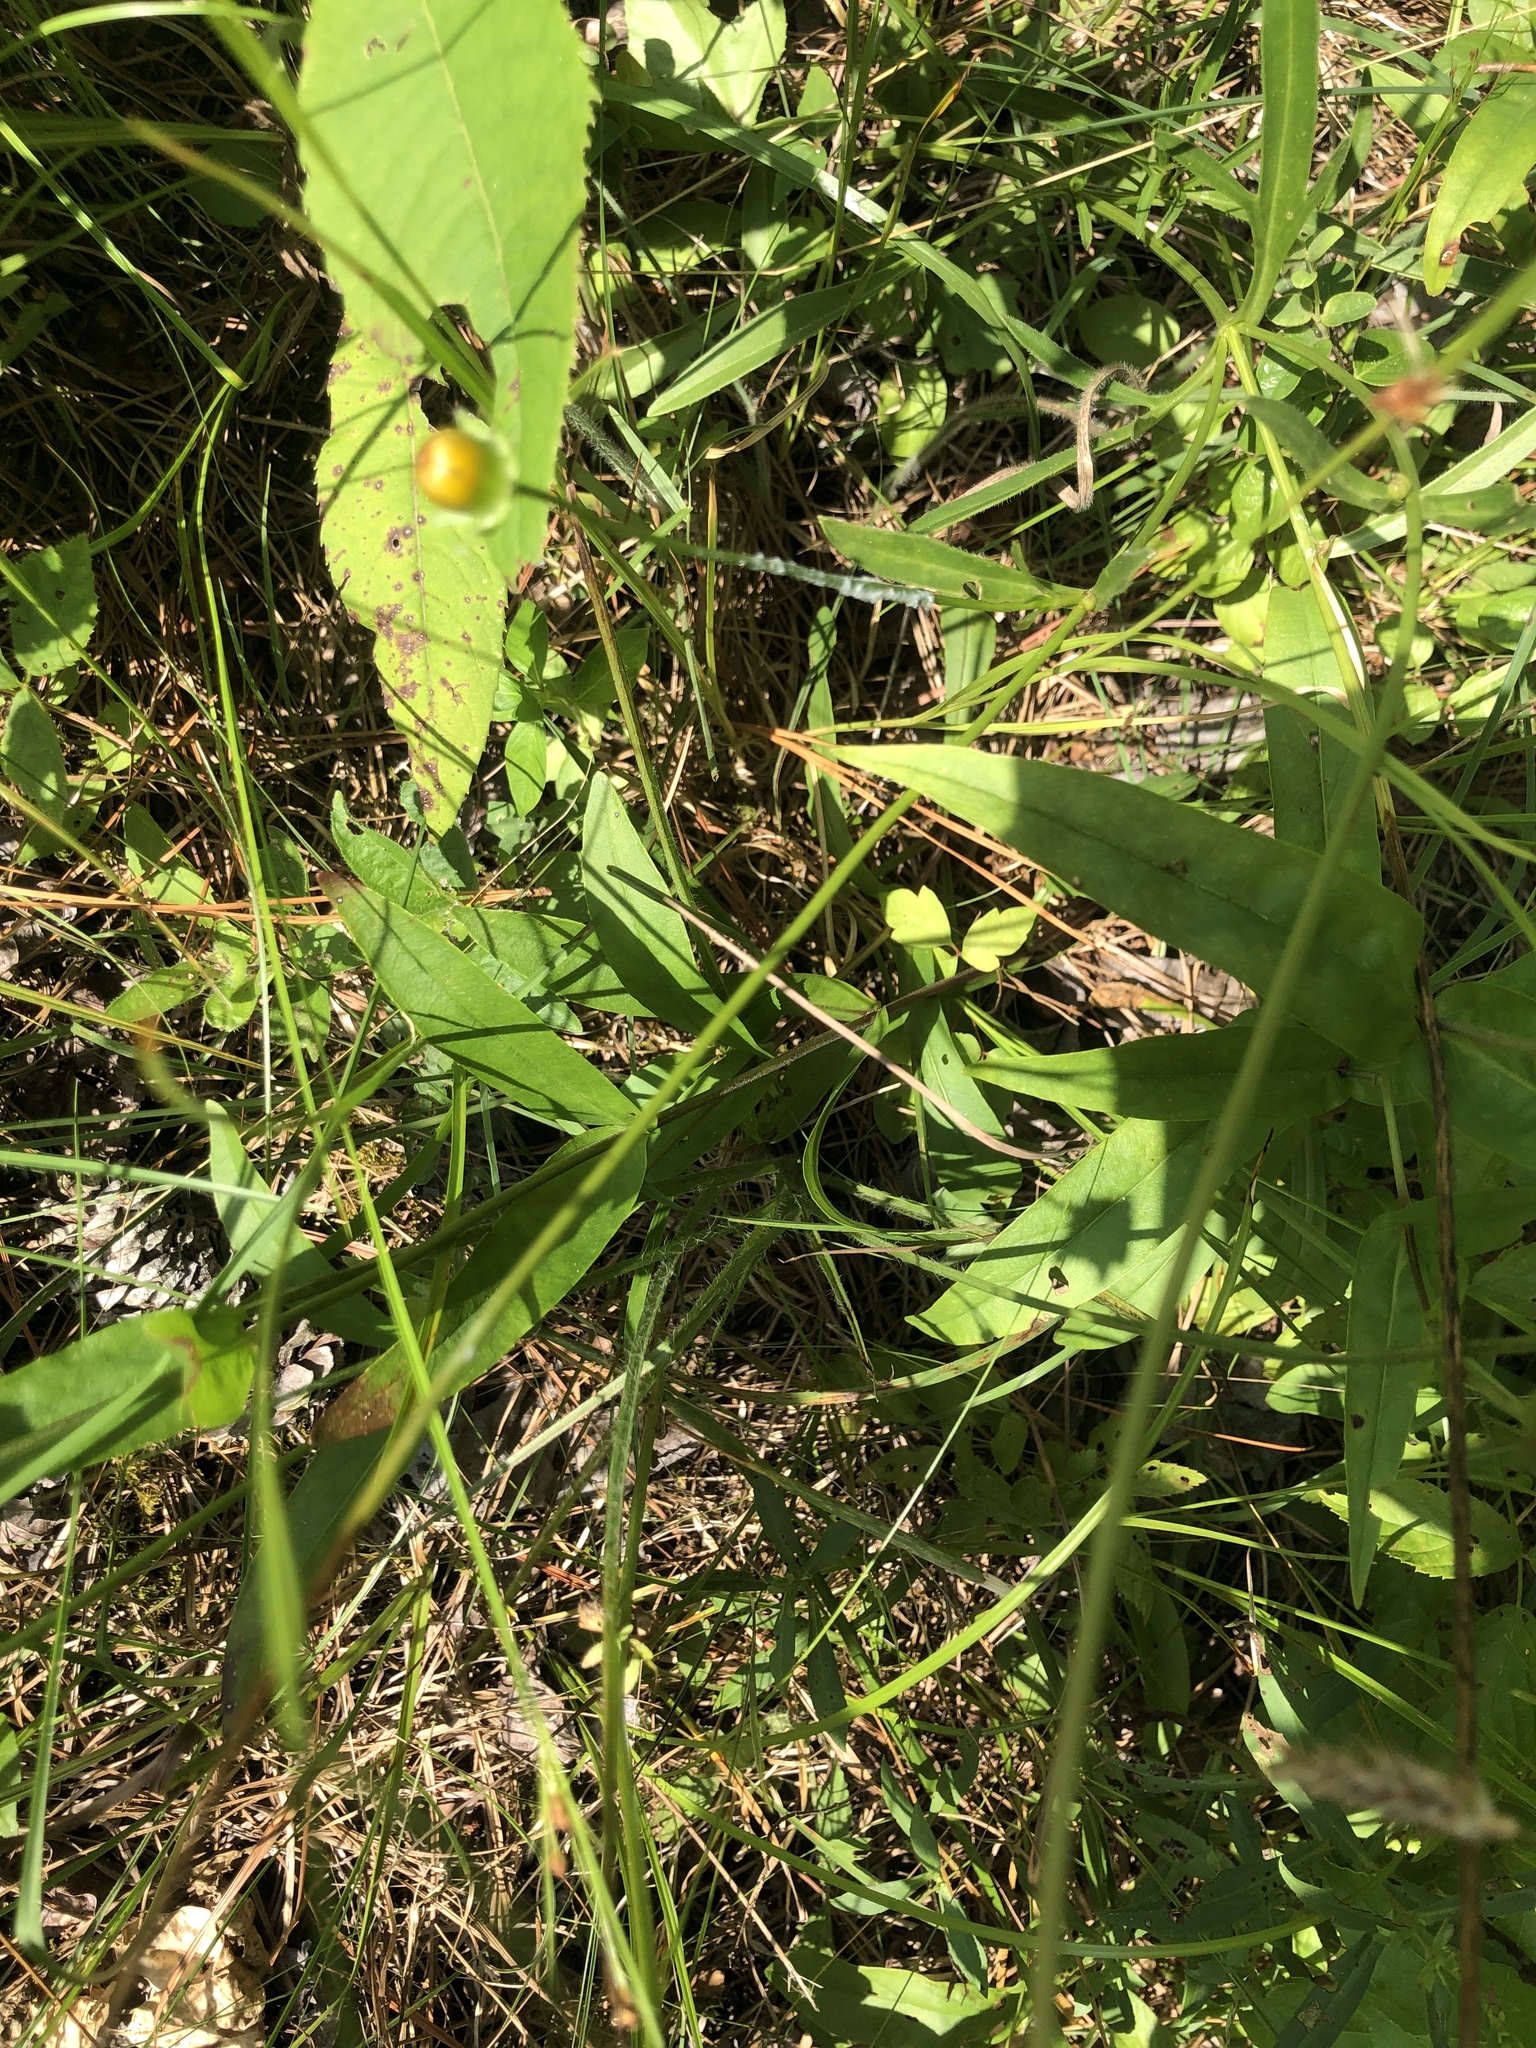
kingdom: Plantae
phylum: Tracheophyta
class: Magnoliopsida
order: Lamiales
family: Plantaginaceae
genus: Penstemon
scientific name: Penstemon laevigatus
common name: Eastern beardtongue
